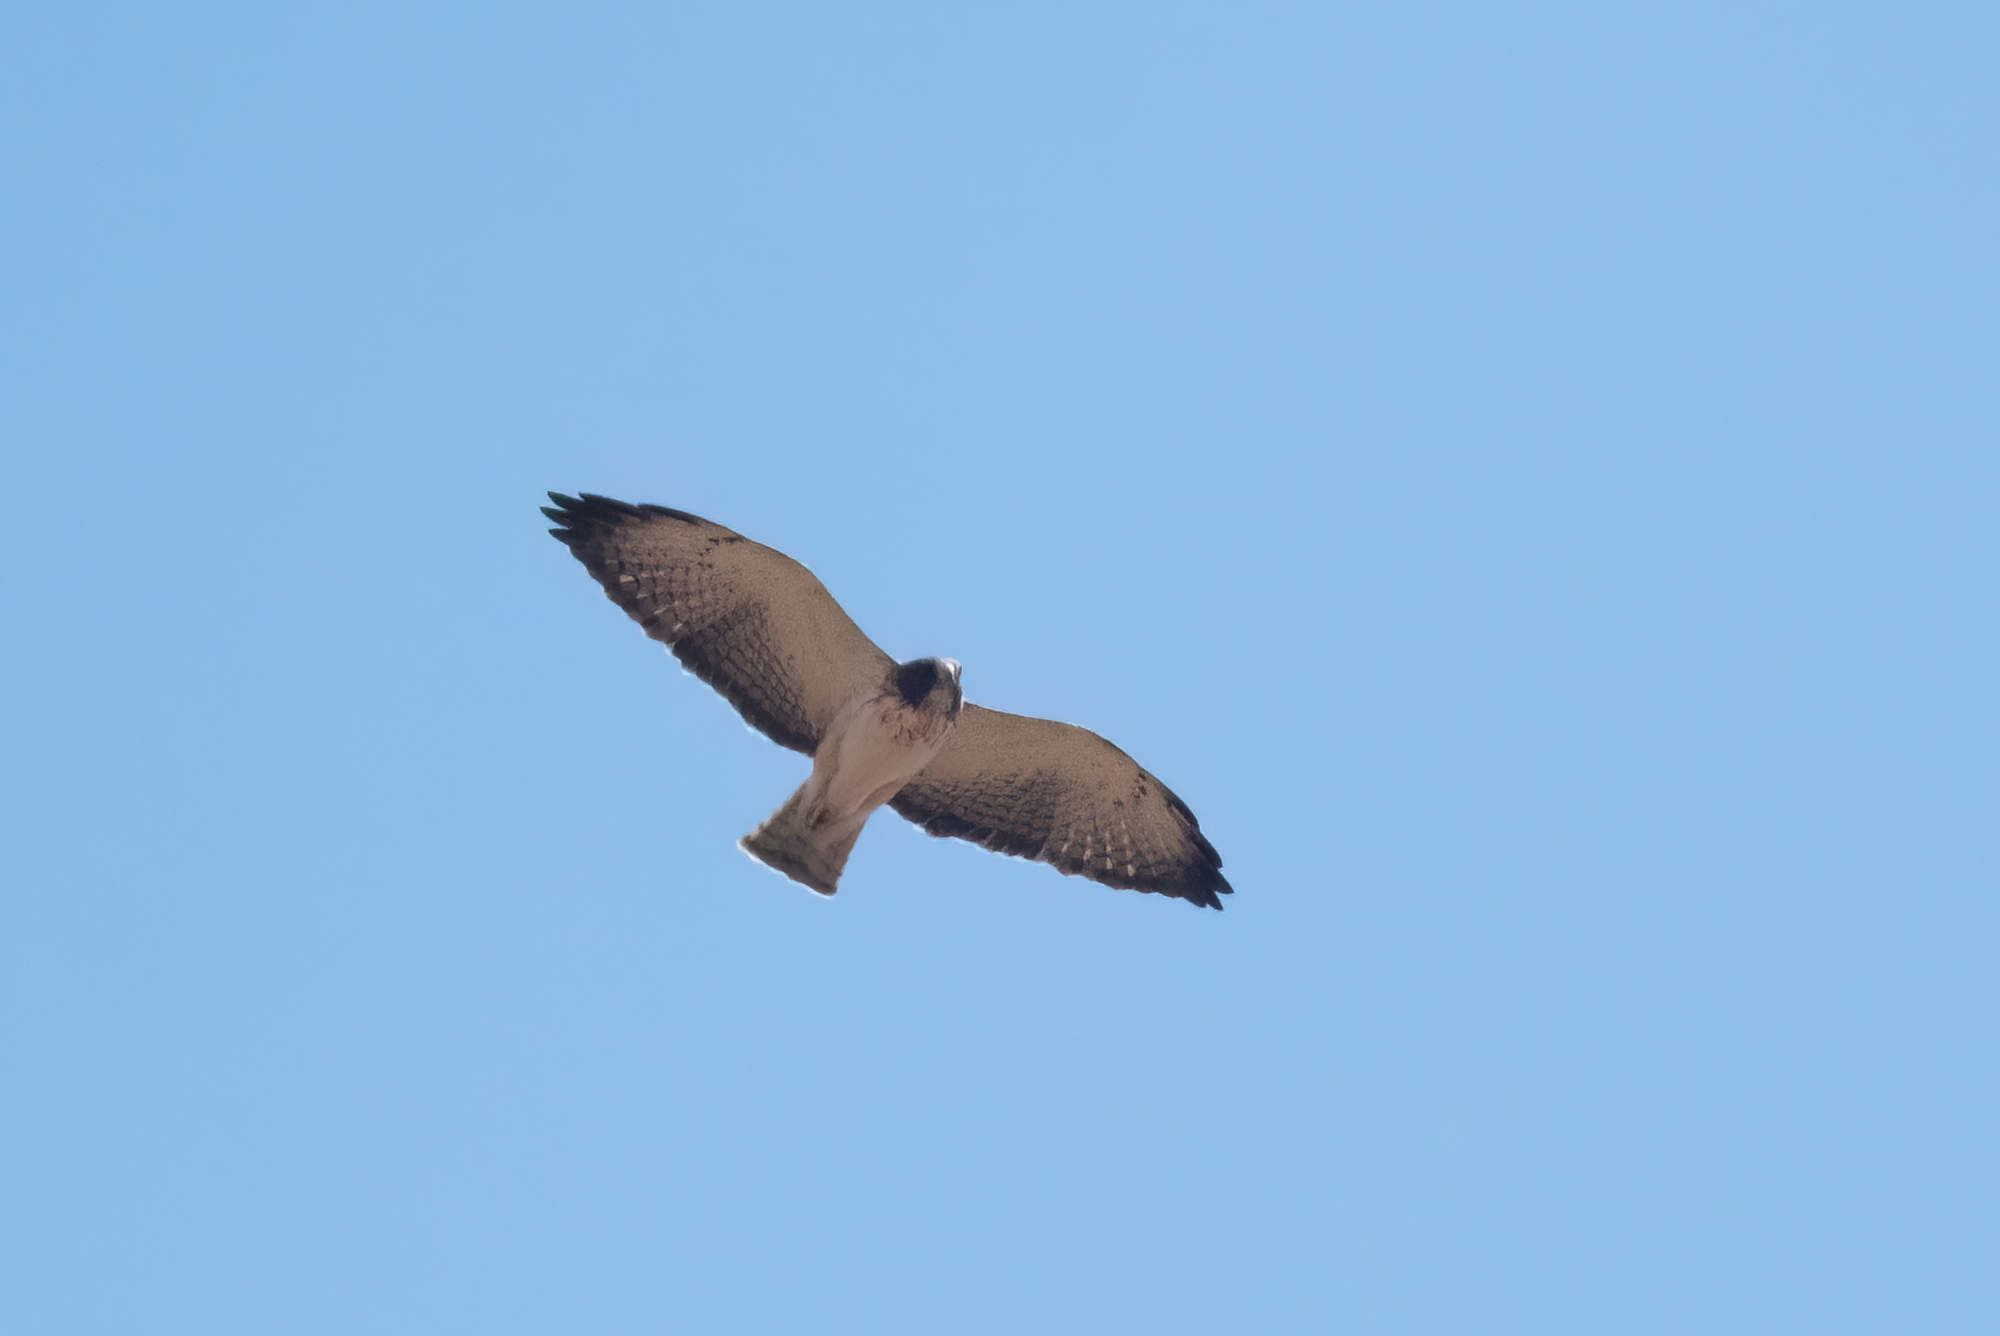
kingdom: Animalia
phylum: Chordata
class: Aves
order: Accipitriformes
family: Accipitridae
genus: Buteo
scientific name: Buteo brachyurus
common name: Short-tailed hawk
